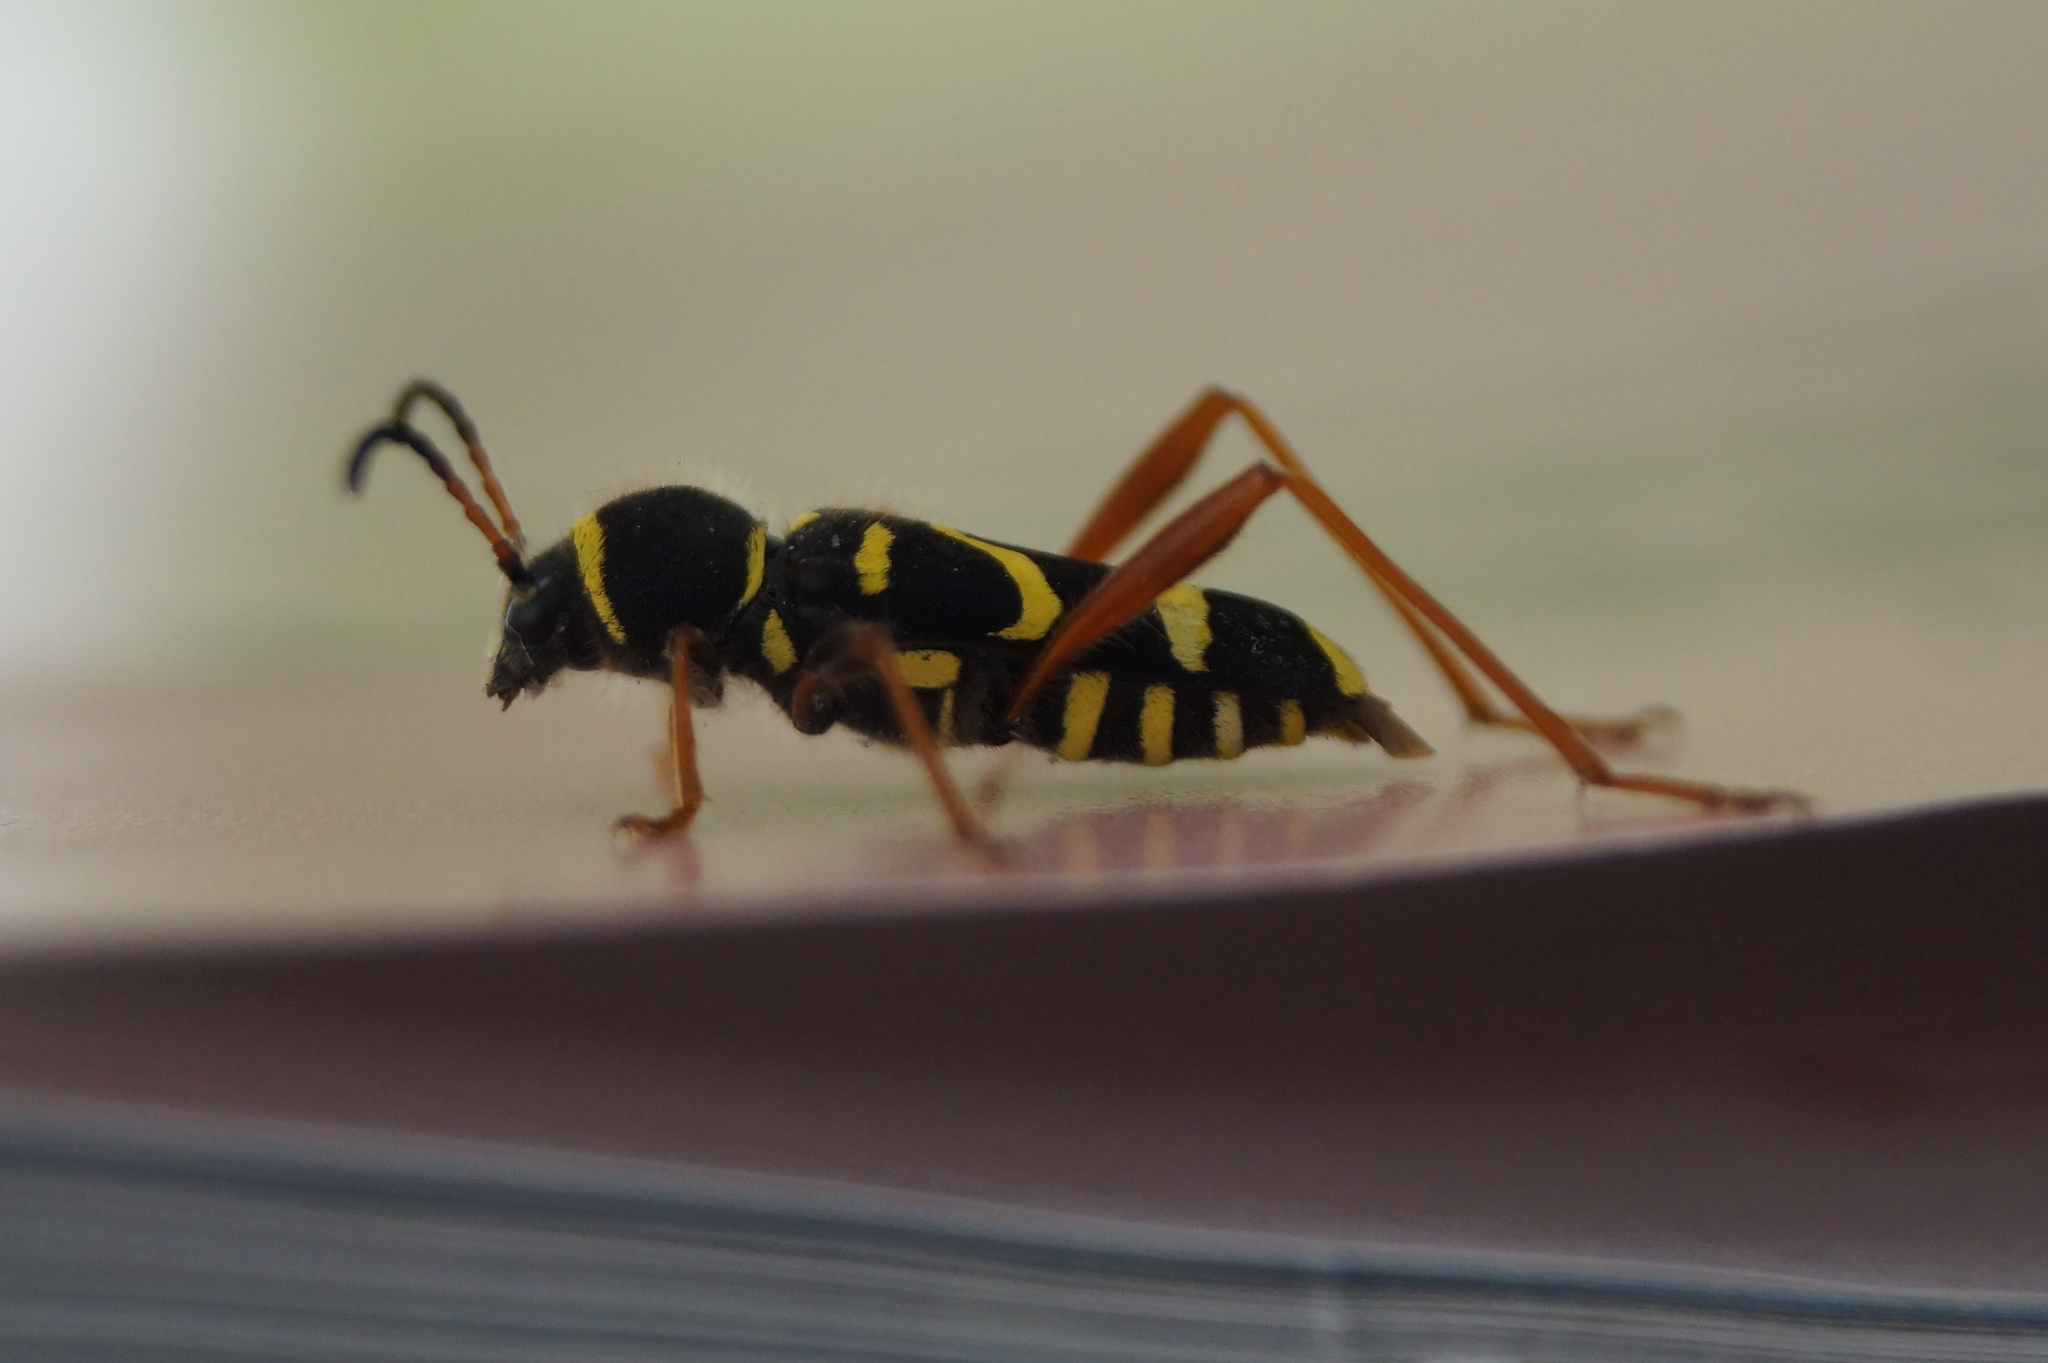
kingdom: Animalia
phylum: Arthropoda
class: Insecta
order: Coleoptera
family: Cerambycidae
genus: Clytus
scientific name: Clytus arietis
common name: Wasp beetle
